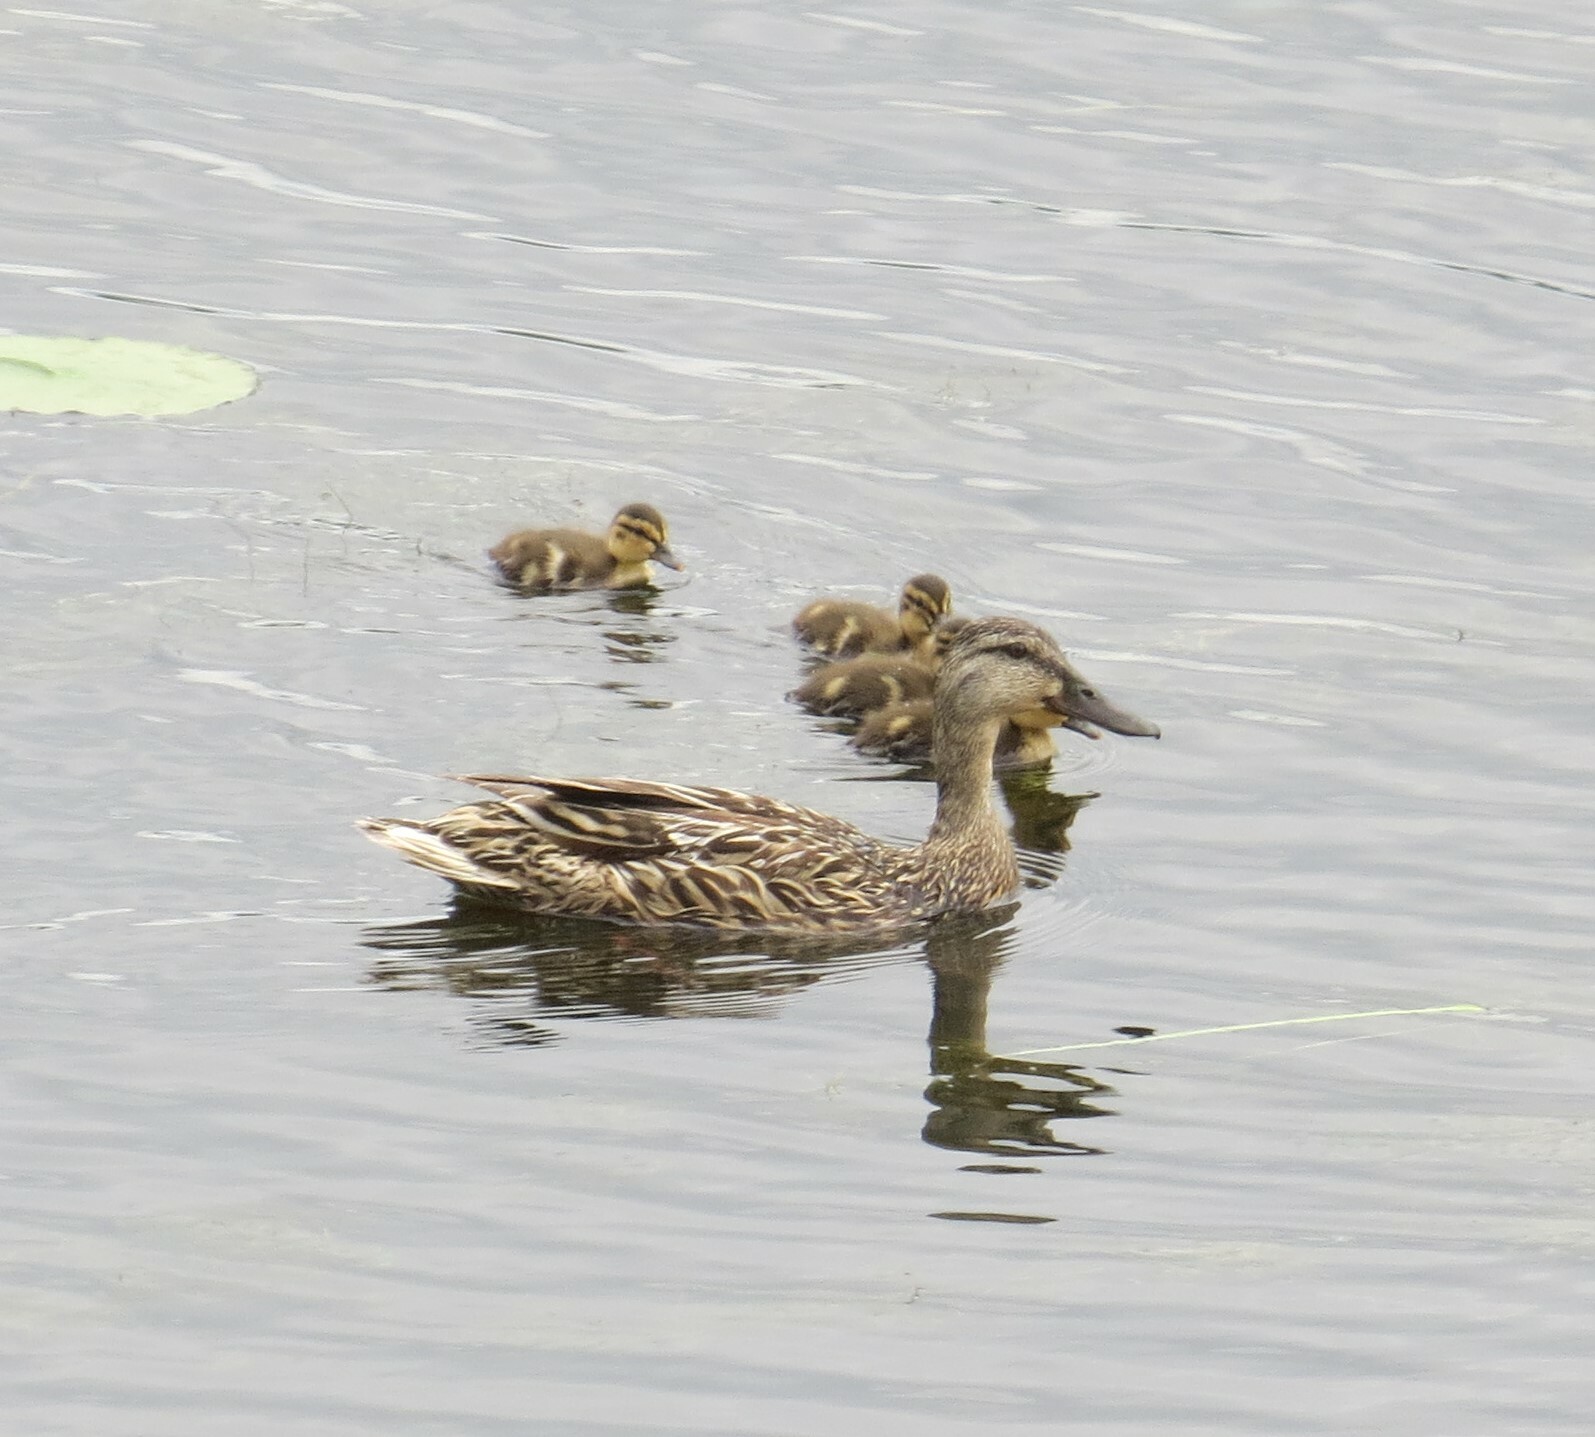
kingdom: Animalia
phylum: Chordata
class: Aves
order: Anseriformes
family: Anatidae
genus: Anas
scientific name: Anas platyrhynchos
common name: Mallard
